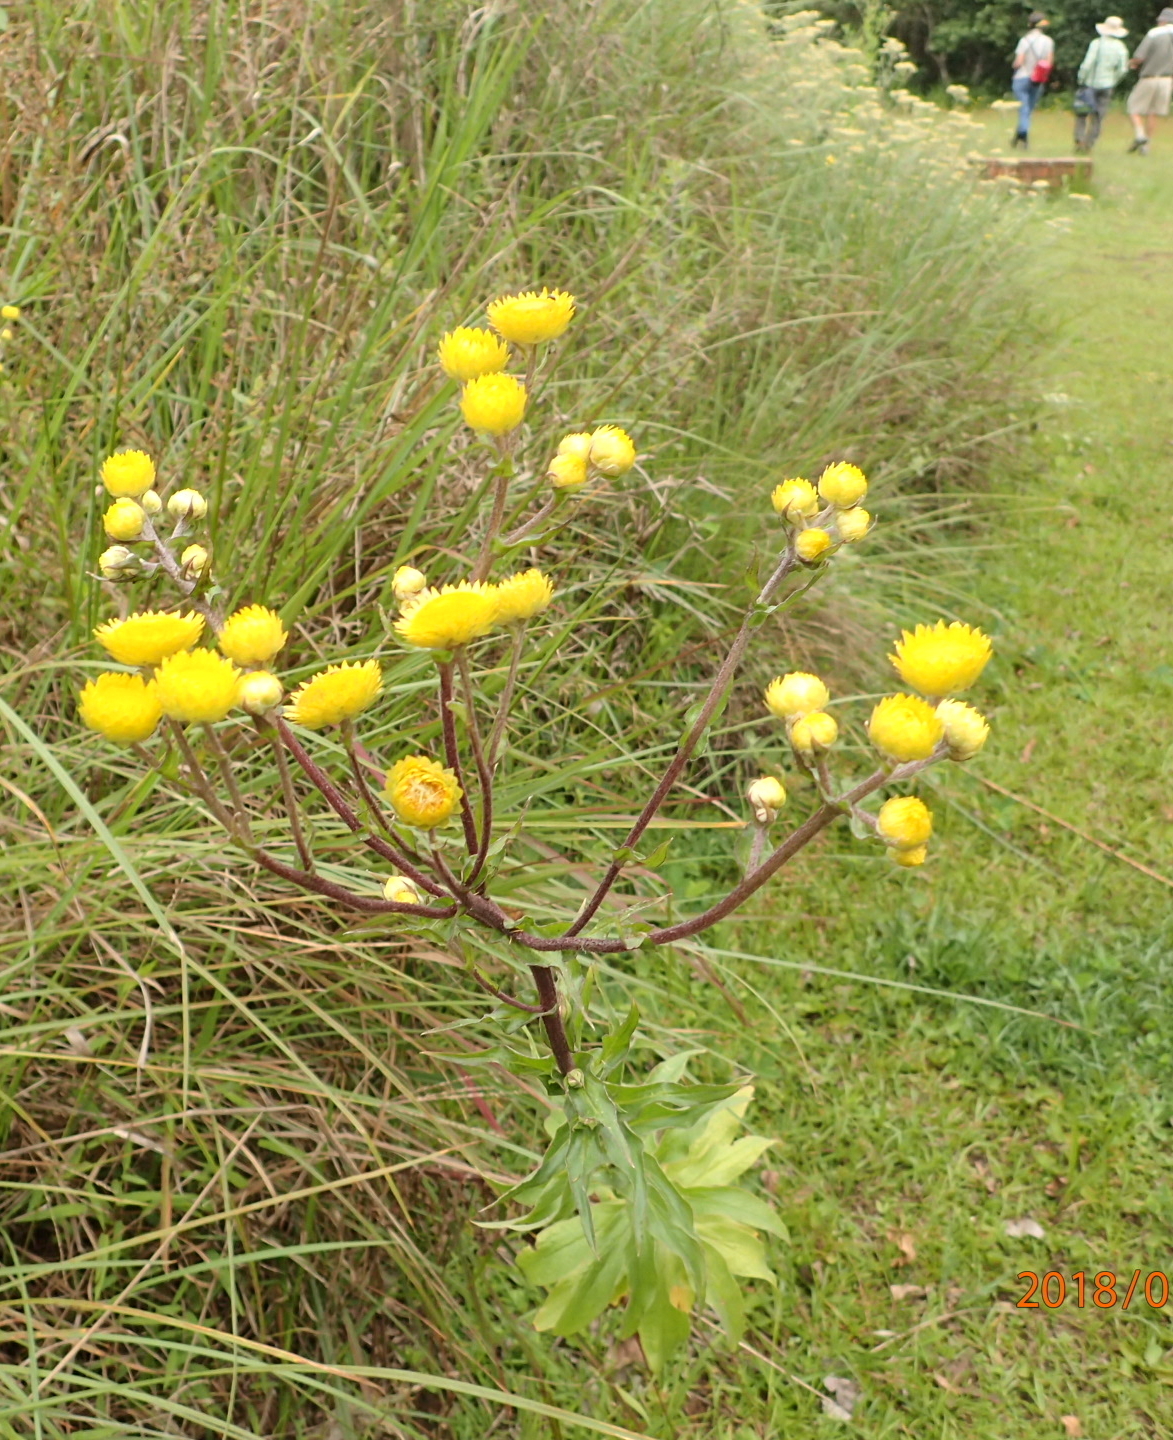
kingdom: Plantae
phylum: Tracheophyta
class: Magnoliopsida
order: Asterales
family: Asteraceae
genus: Helichrysum
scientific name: Helichrysum cooperi
